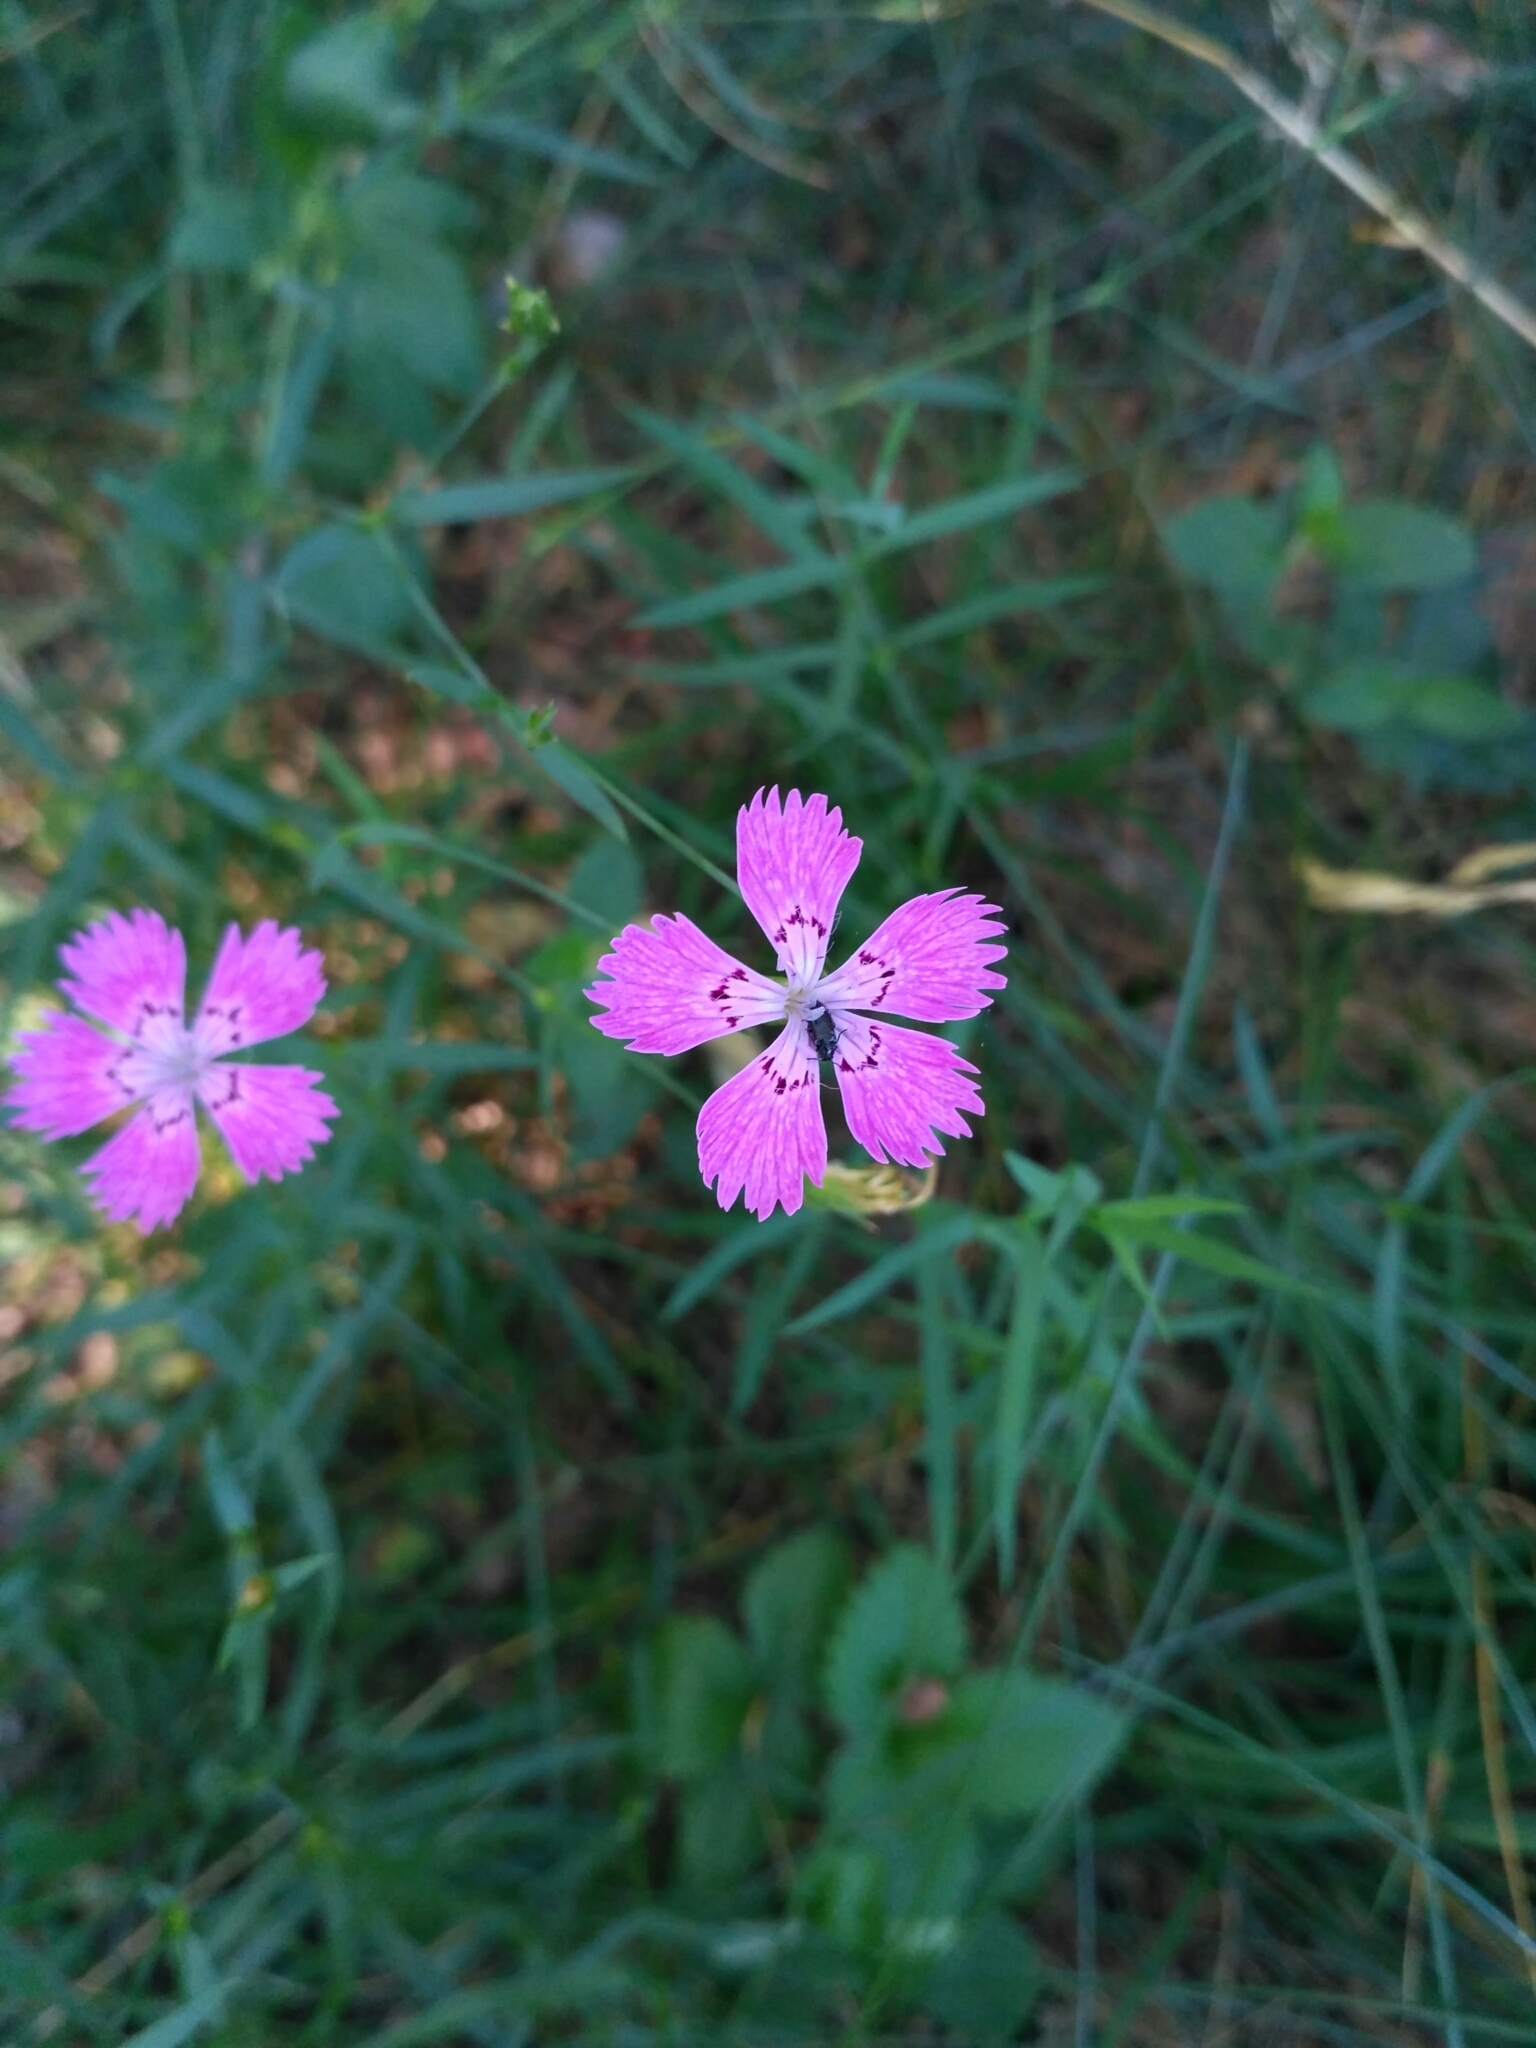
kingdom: Plantae
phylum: Tracheophyta
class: Magnoliopsida
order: Caryophyllales
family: Caryophyllaceae
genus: Dianthus
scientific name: Dianthus chinensis
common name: Rainbow pink
